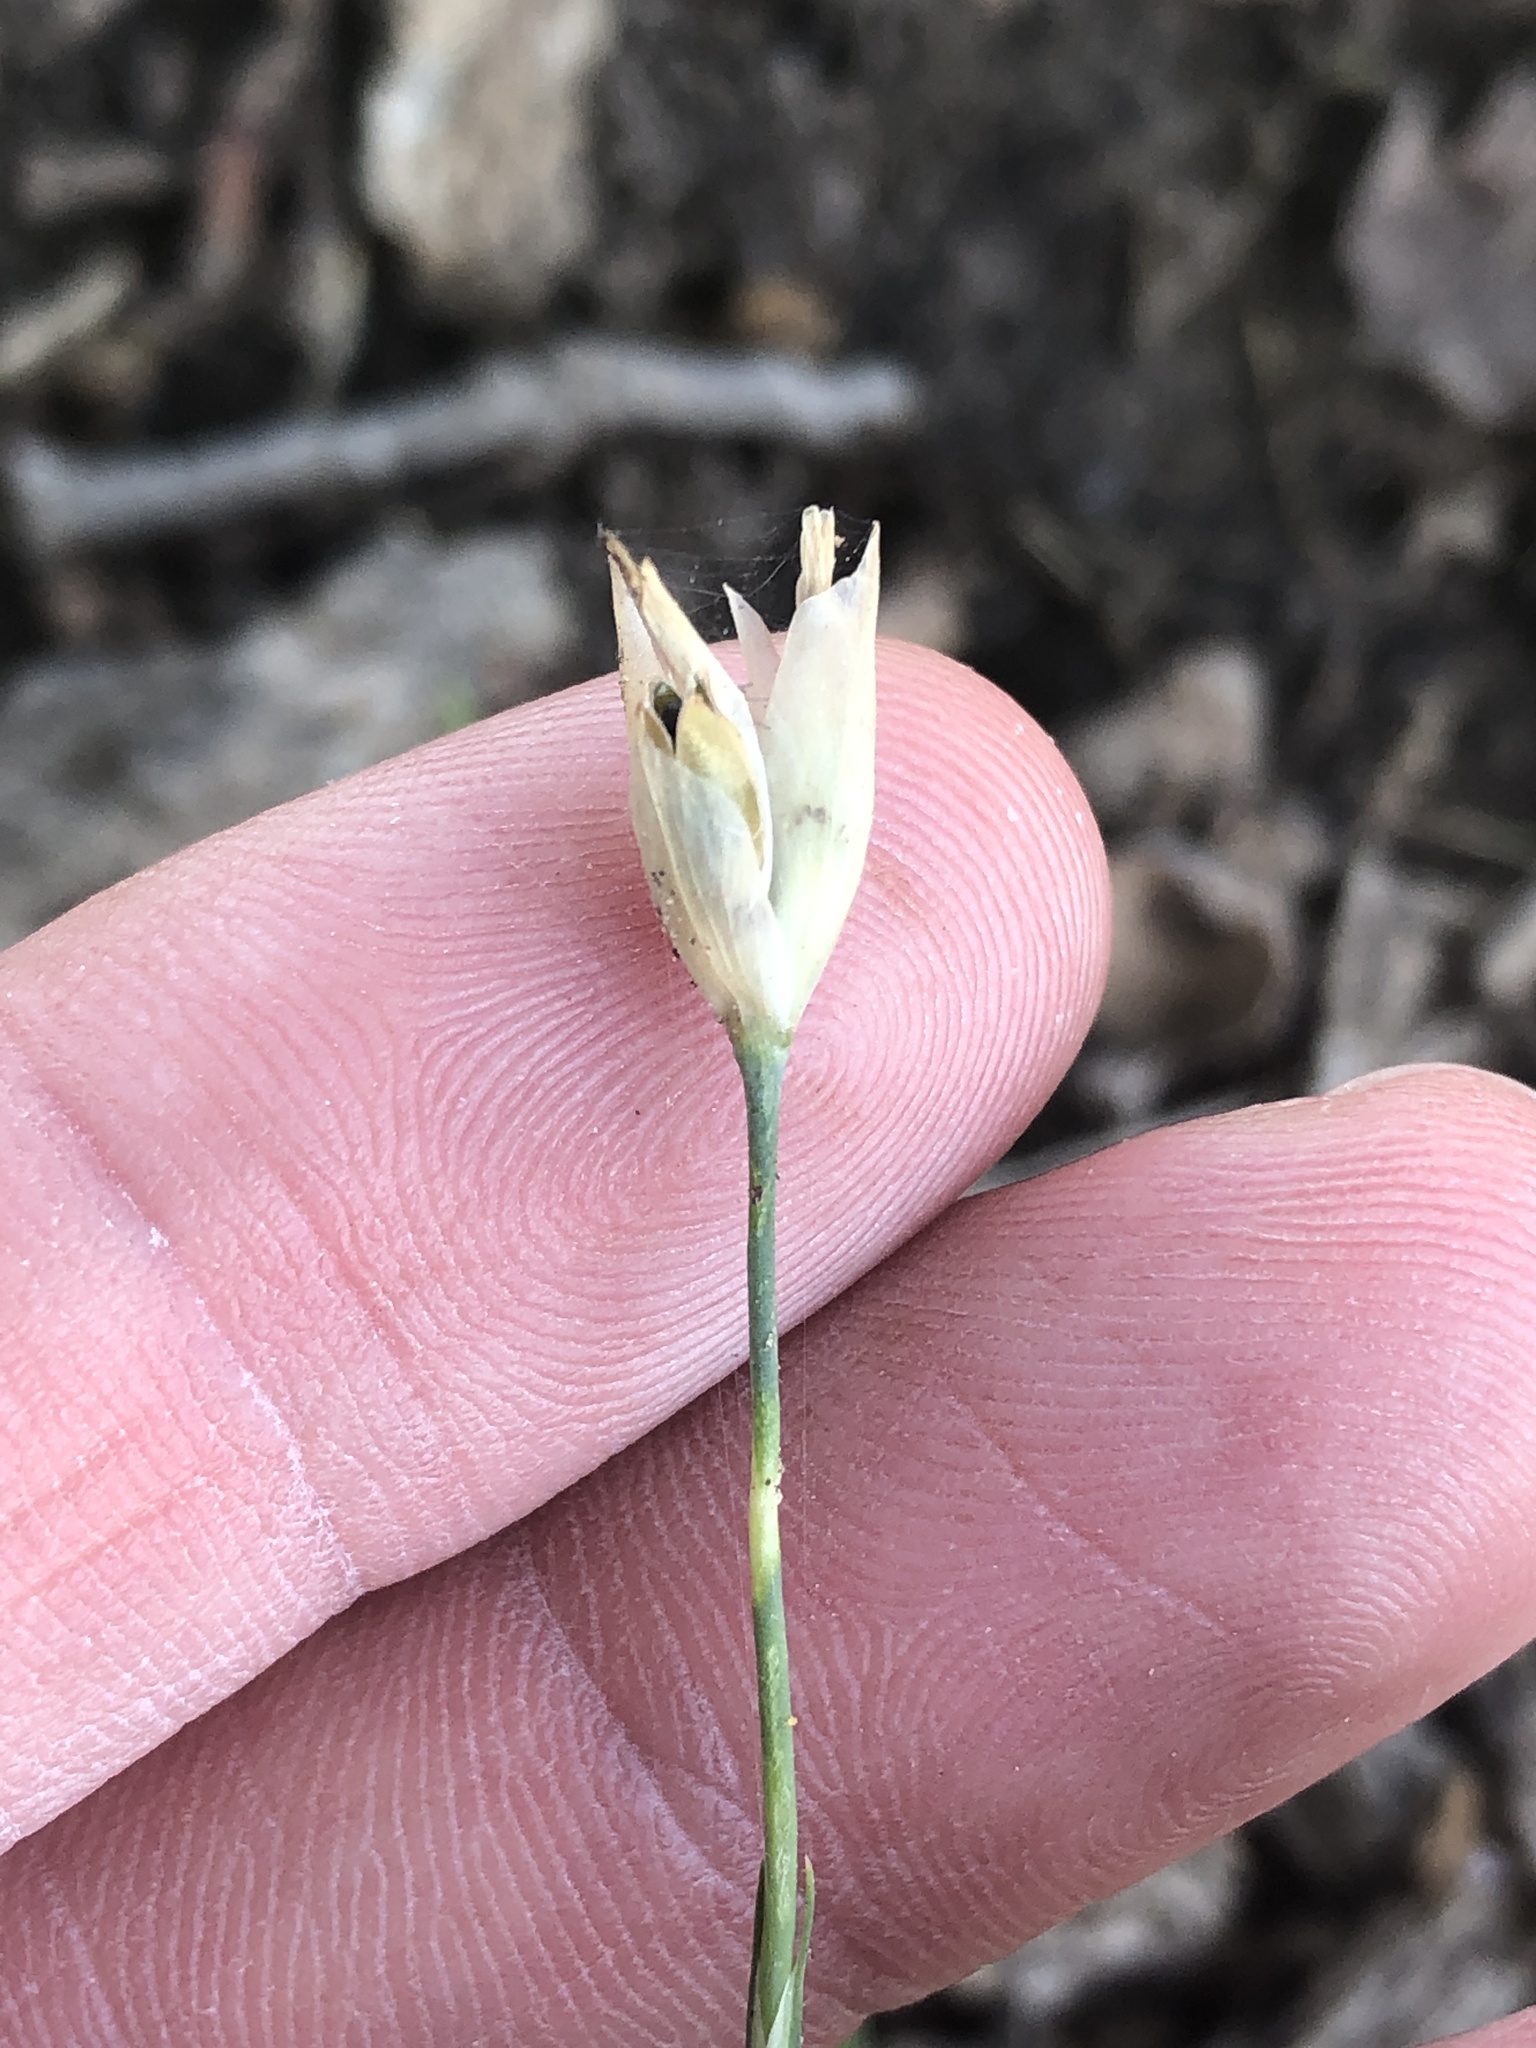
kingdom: Plantae
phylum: Tracheophyta
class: Magnoliopsida
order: Caryophyllales
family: Caryophyllaceae
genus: Petrorhagia
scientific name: Petrorhagia dubia
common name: Hairypink
